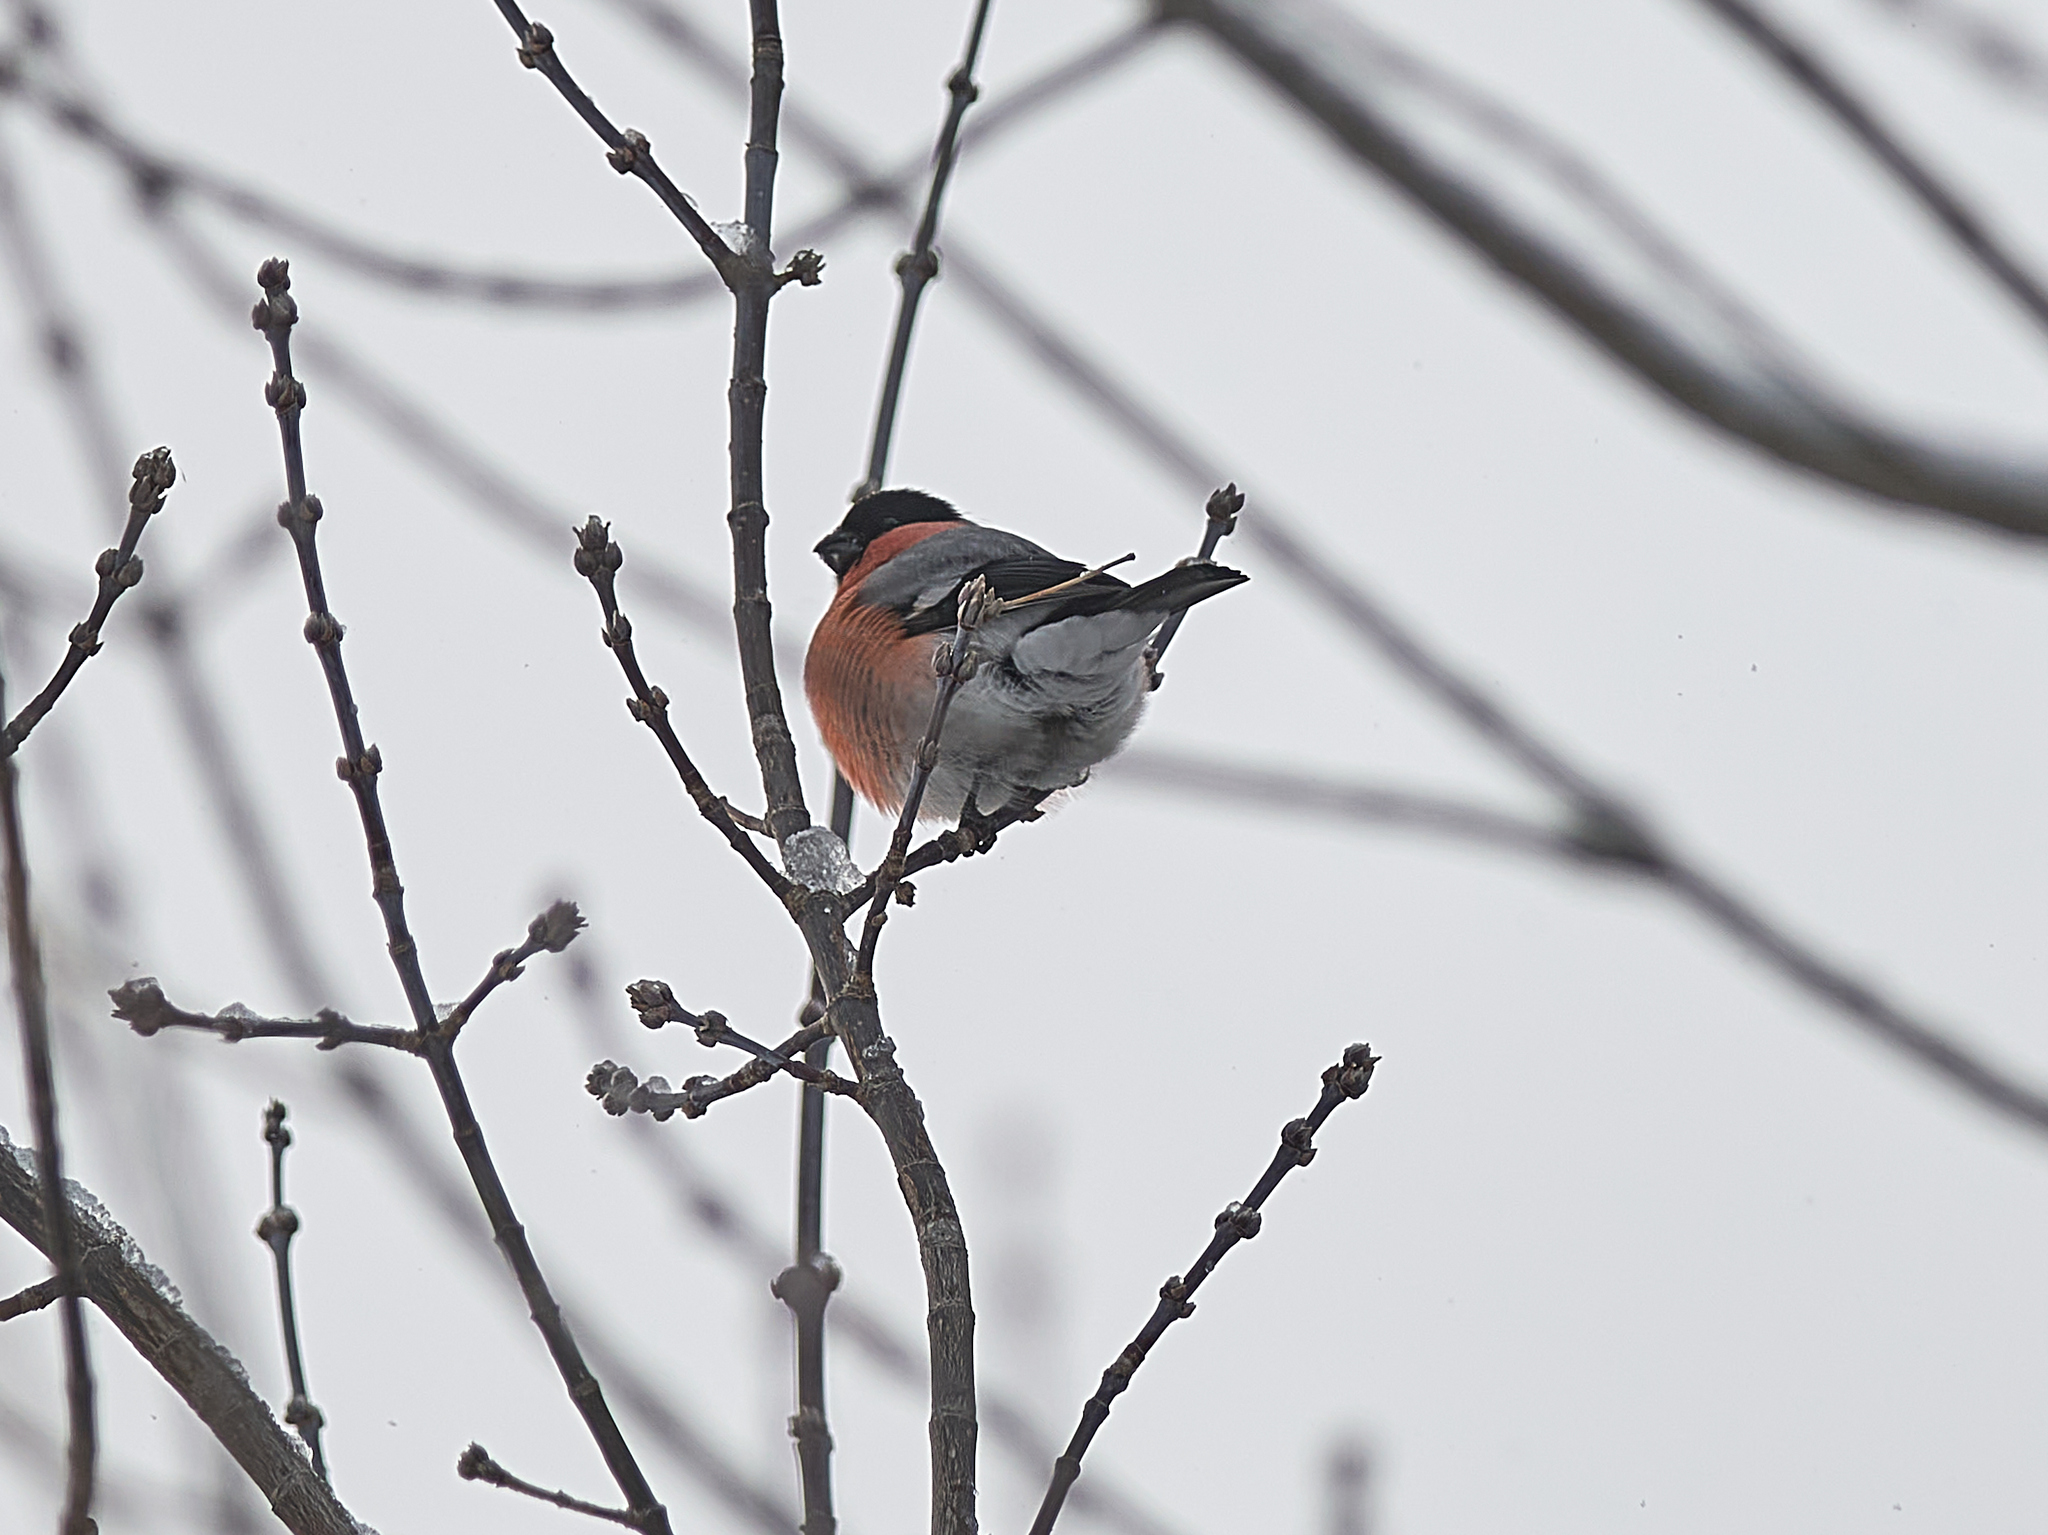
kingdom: Animalia
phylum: Chordata
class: Aves
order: Passeriformes
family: Fringillidae
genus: Pyrrhula
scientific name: Pyrrhula pyrrhula
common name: Eurasian bullfinch
